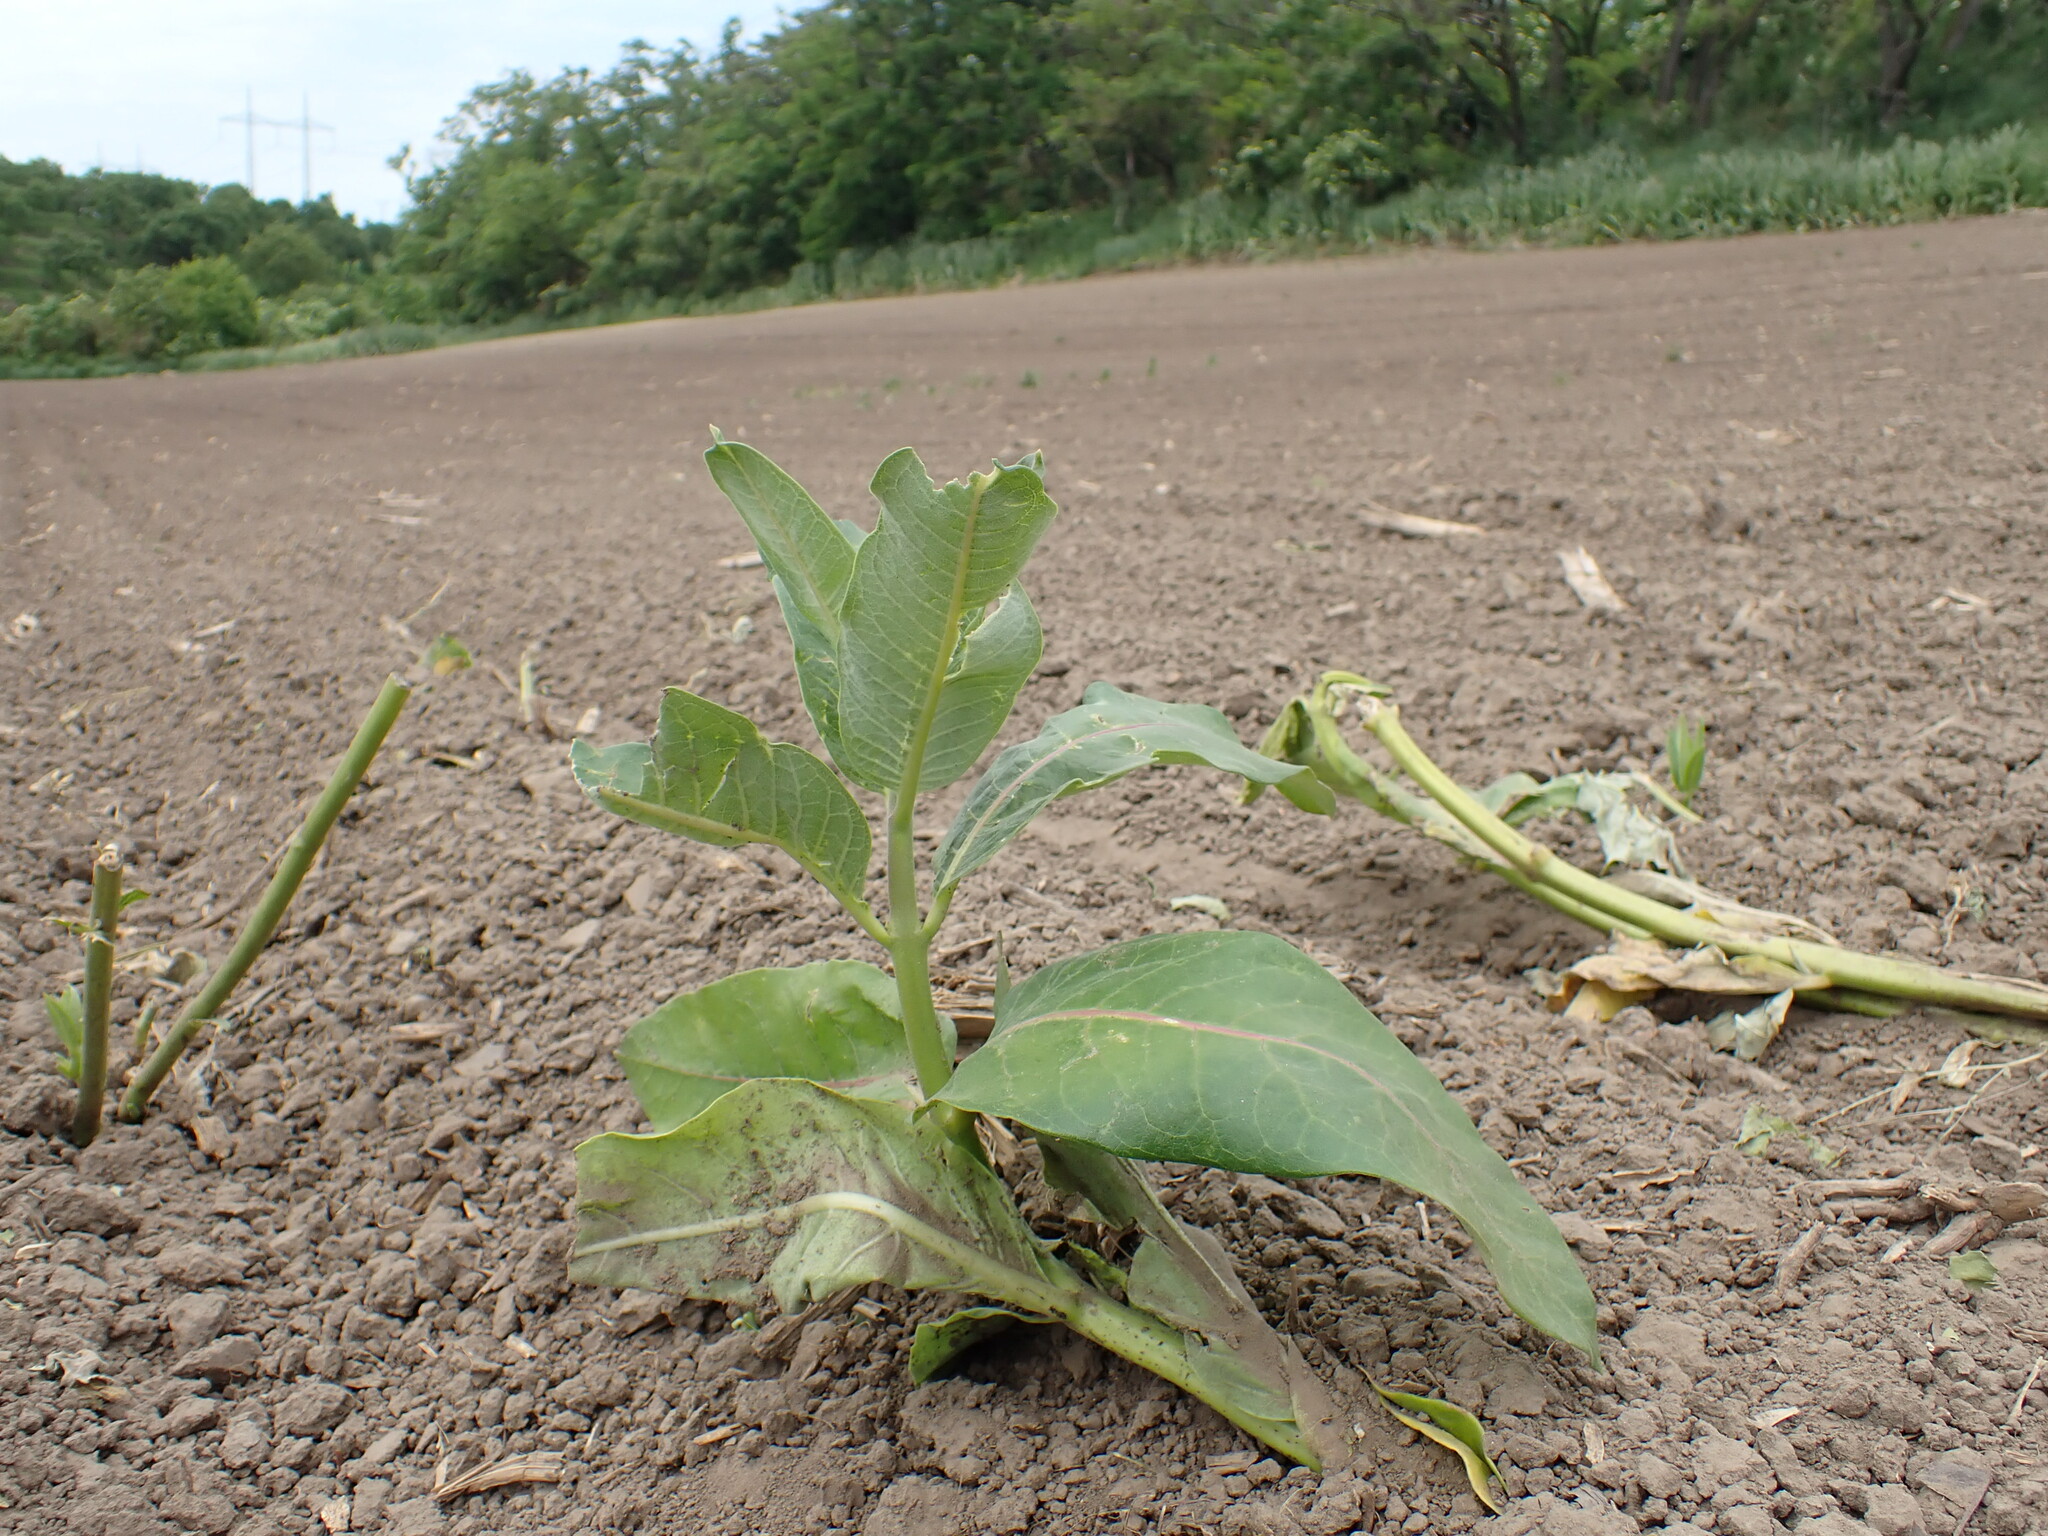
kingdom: Plantae
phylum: Tracheophyta
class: Magnoliopsida
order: Gentianales
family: Apocynaceae
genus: Asclepias
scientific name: Asclepias syriaca
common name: Common milkweed
